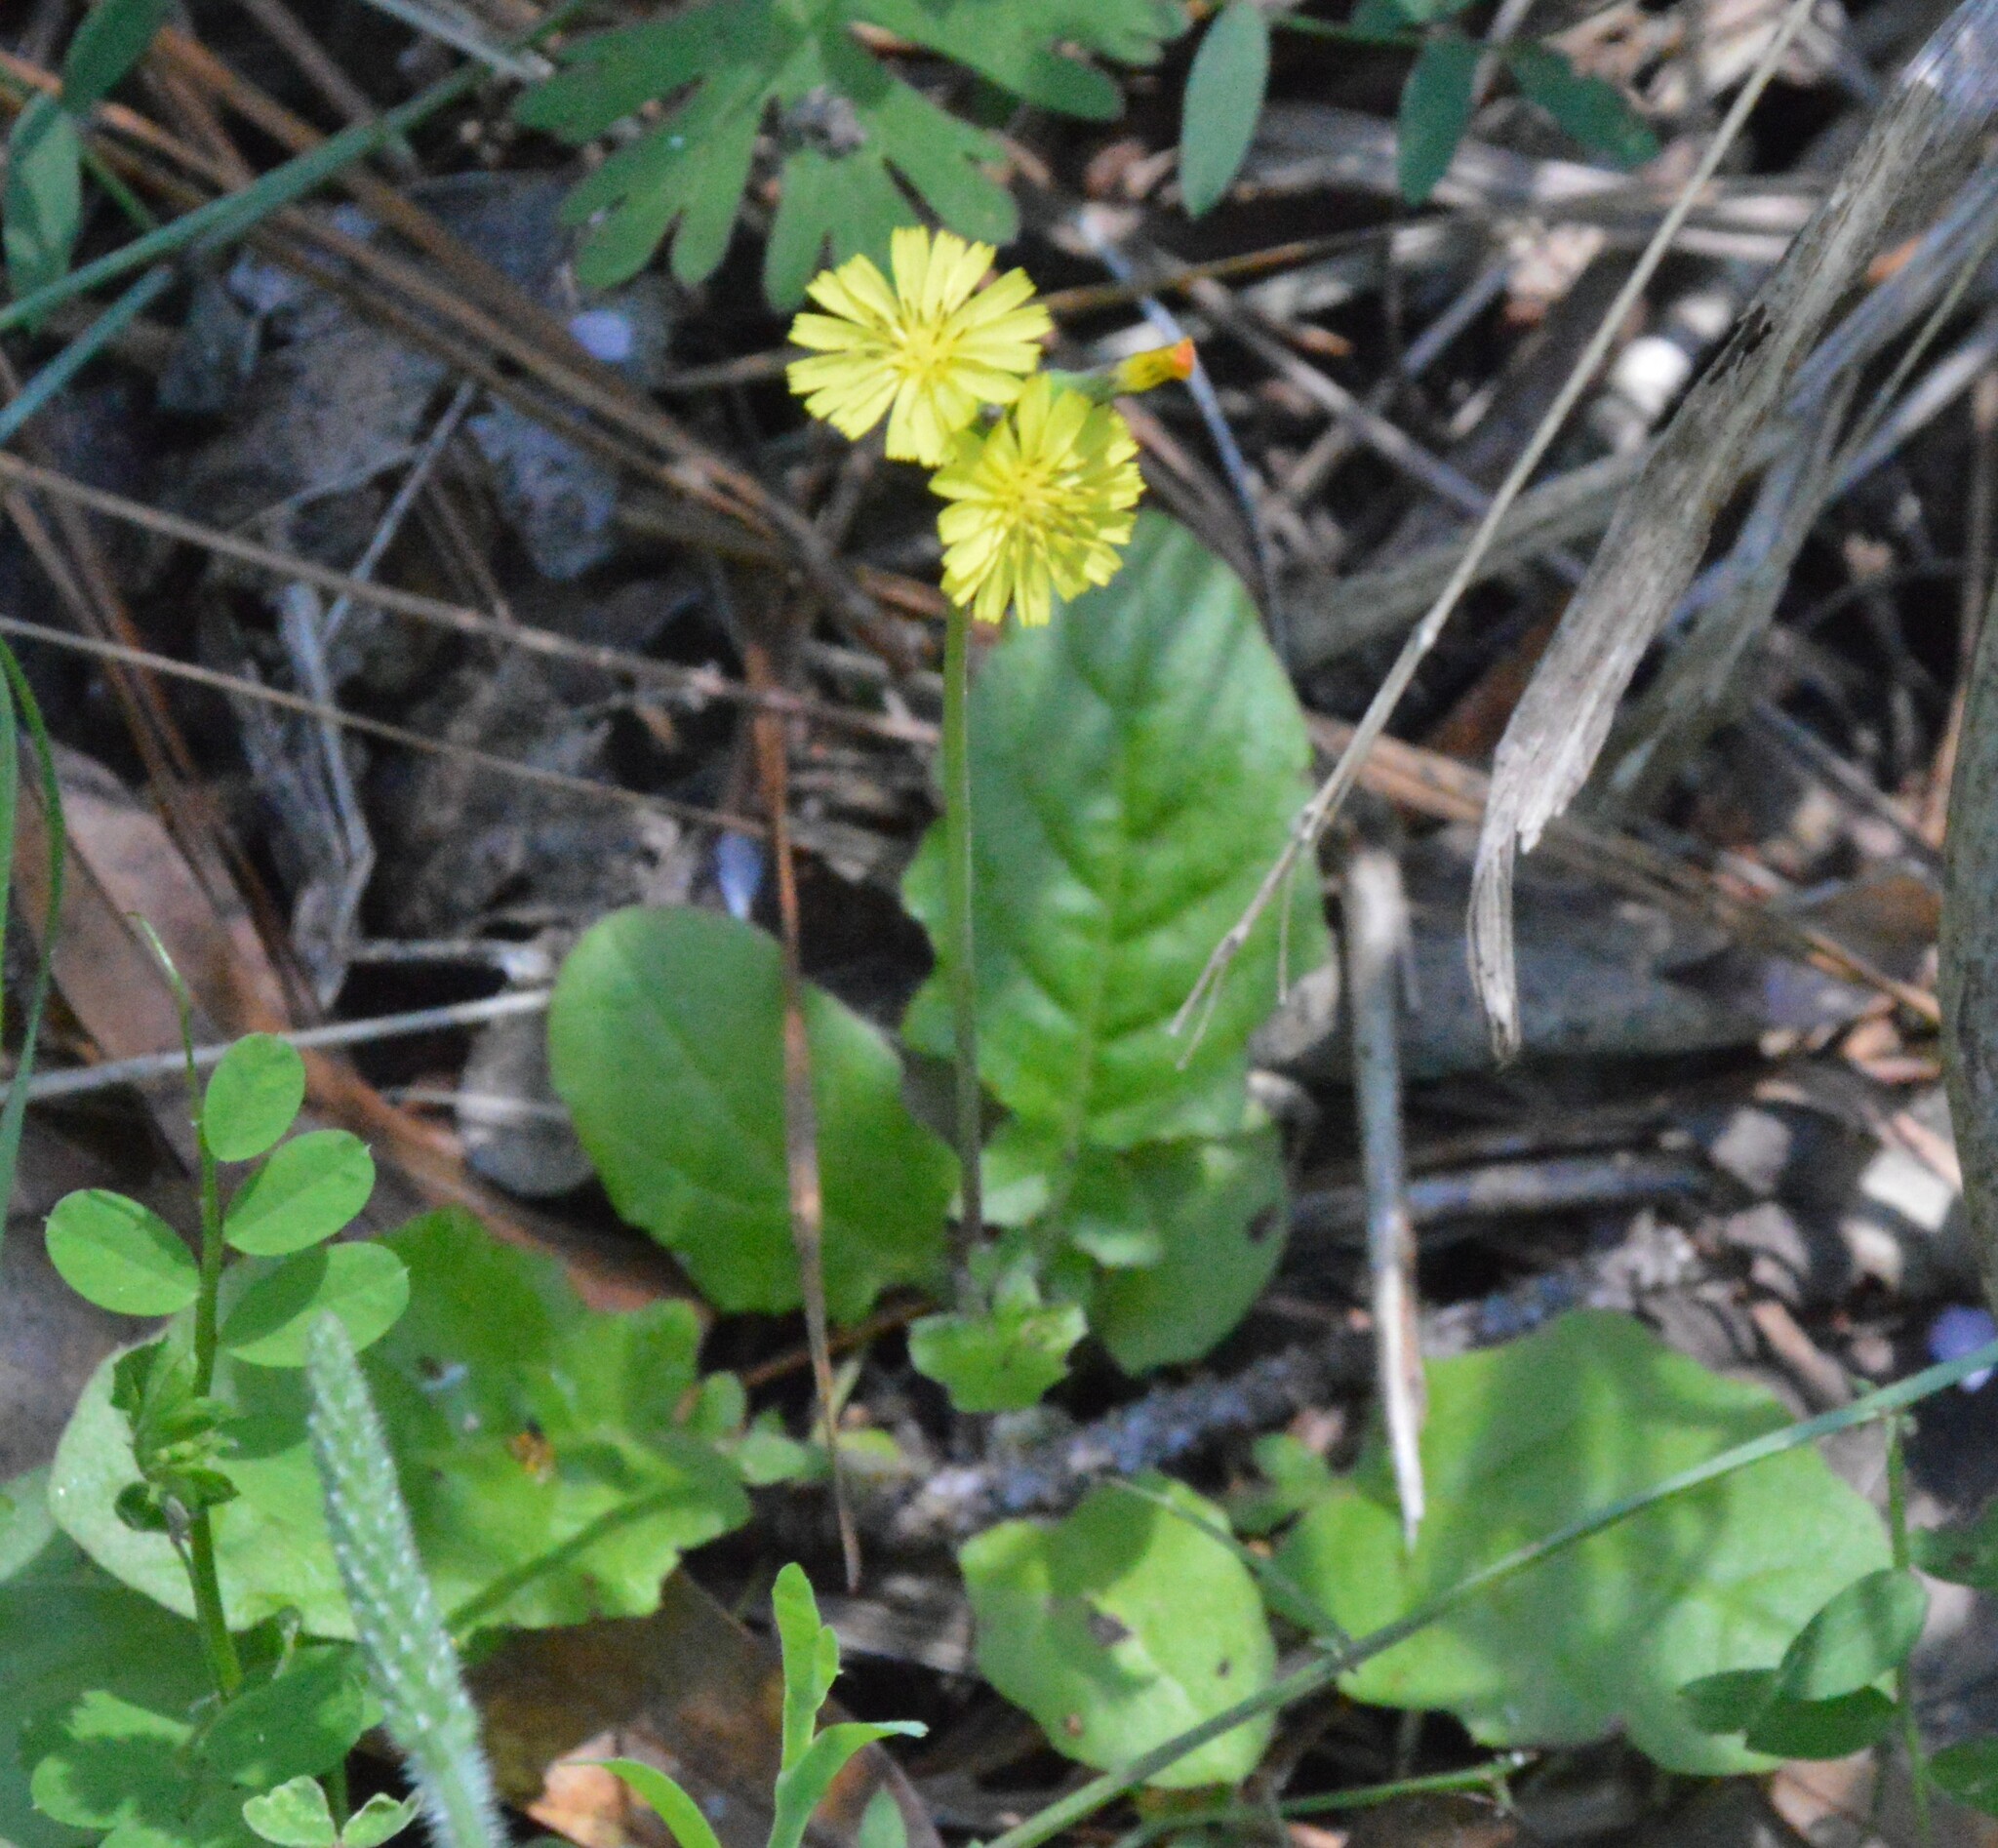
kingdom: Plantae
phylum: Tracheophyta
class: Magnoliopsida
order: Asterales
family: Asteraceae
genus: Youngia
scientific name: Youngia japonica
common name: Oriental false hawksbeard
